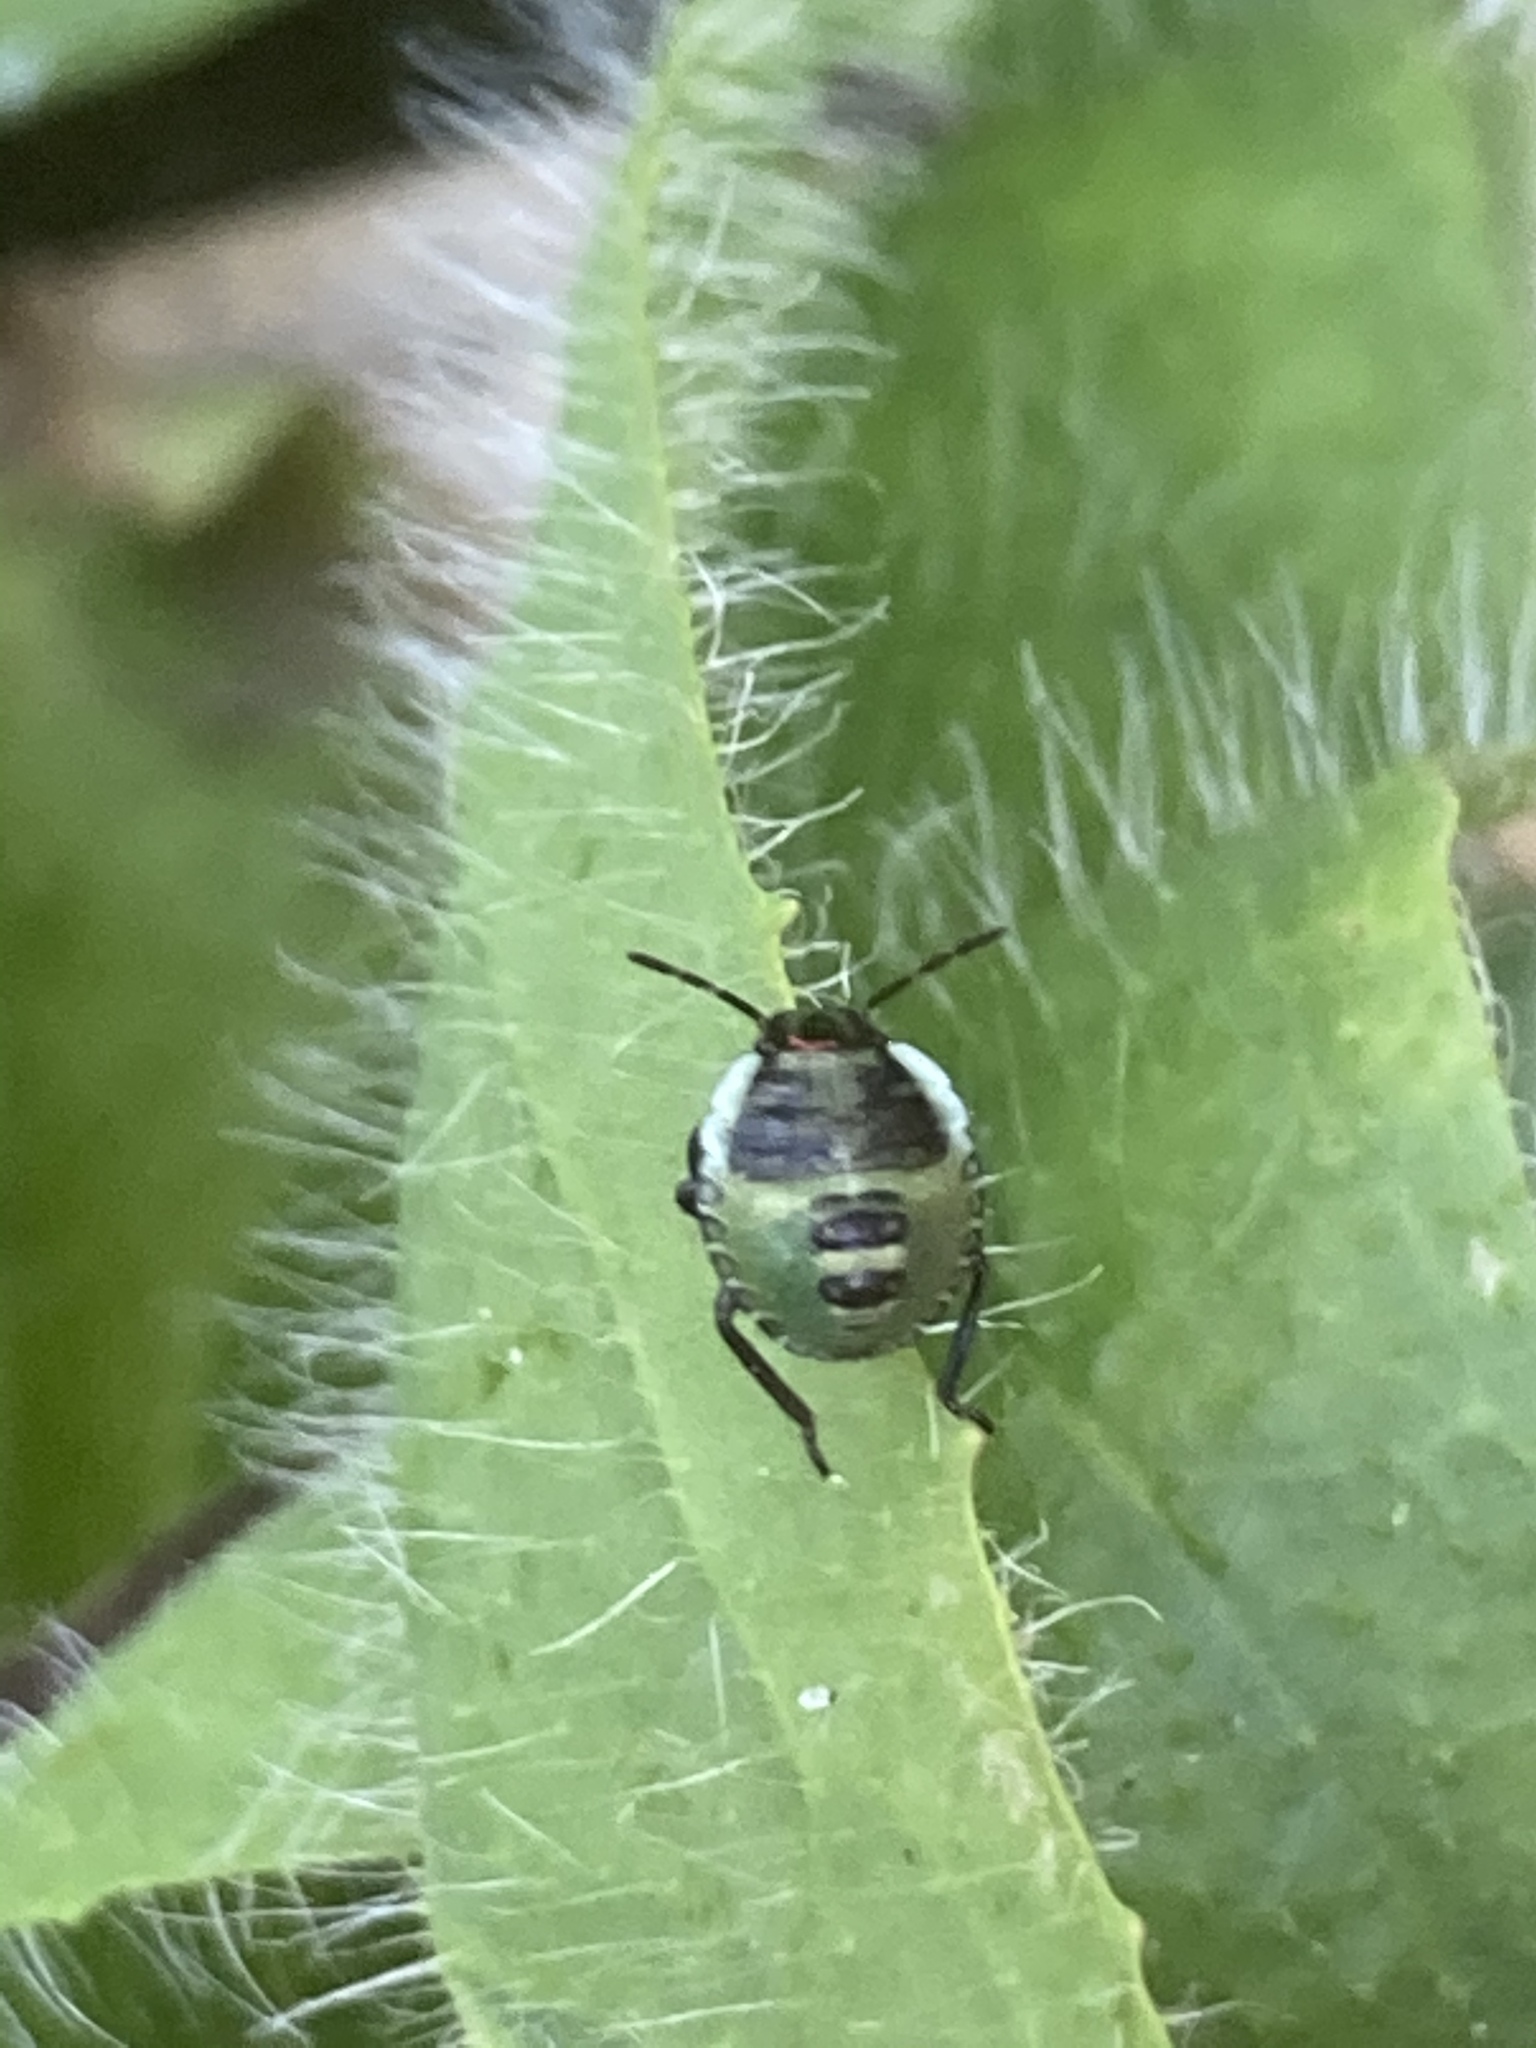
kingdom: Animalia
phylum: Arthropoda
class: Insecta
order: Hemiptera
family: Pentatomidae
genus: Palomena
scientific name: Palomena prasina
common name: Green shieldbug
